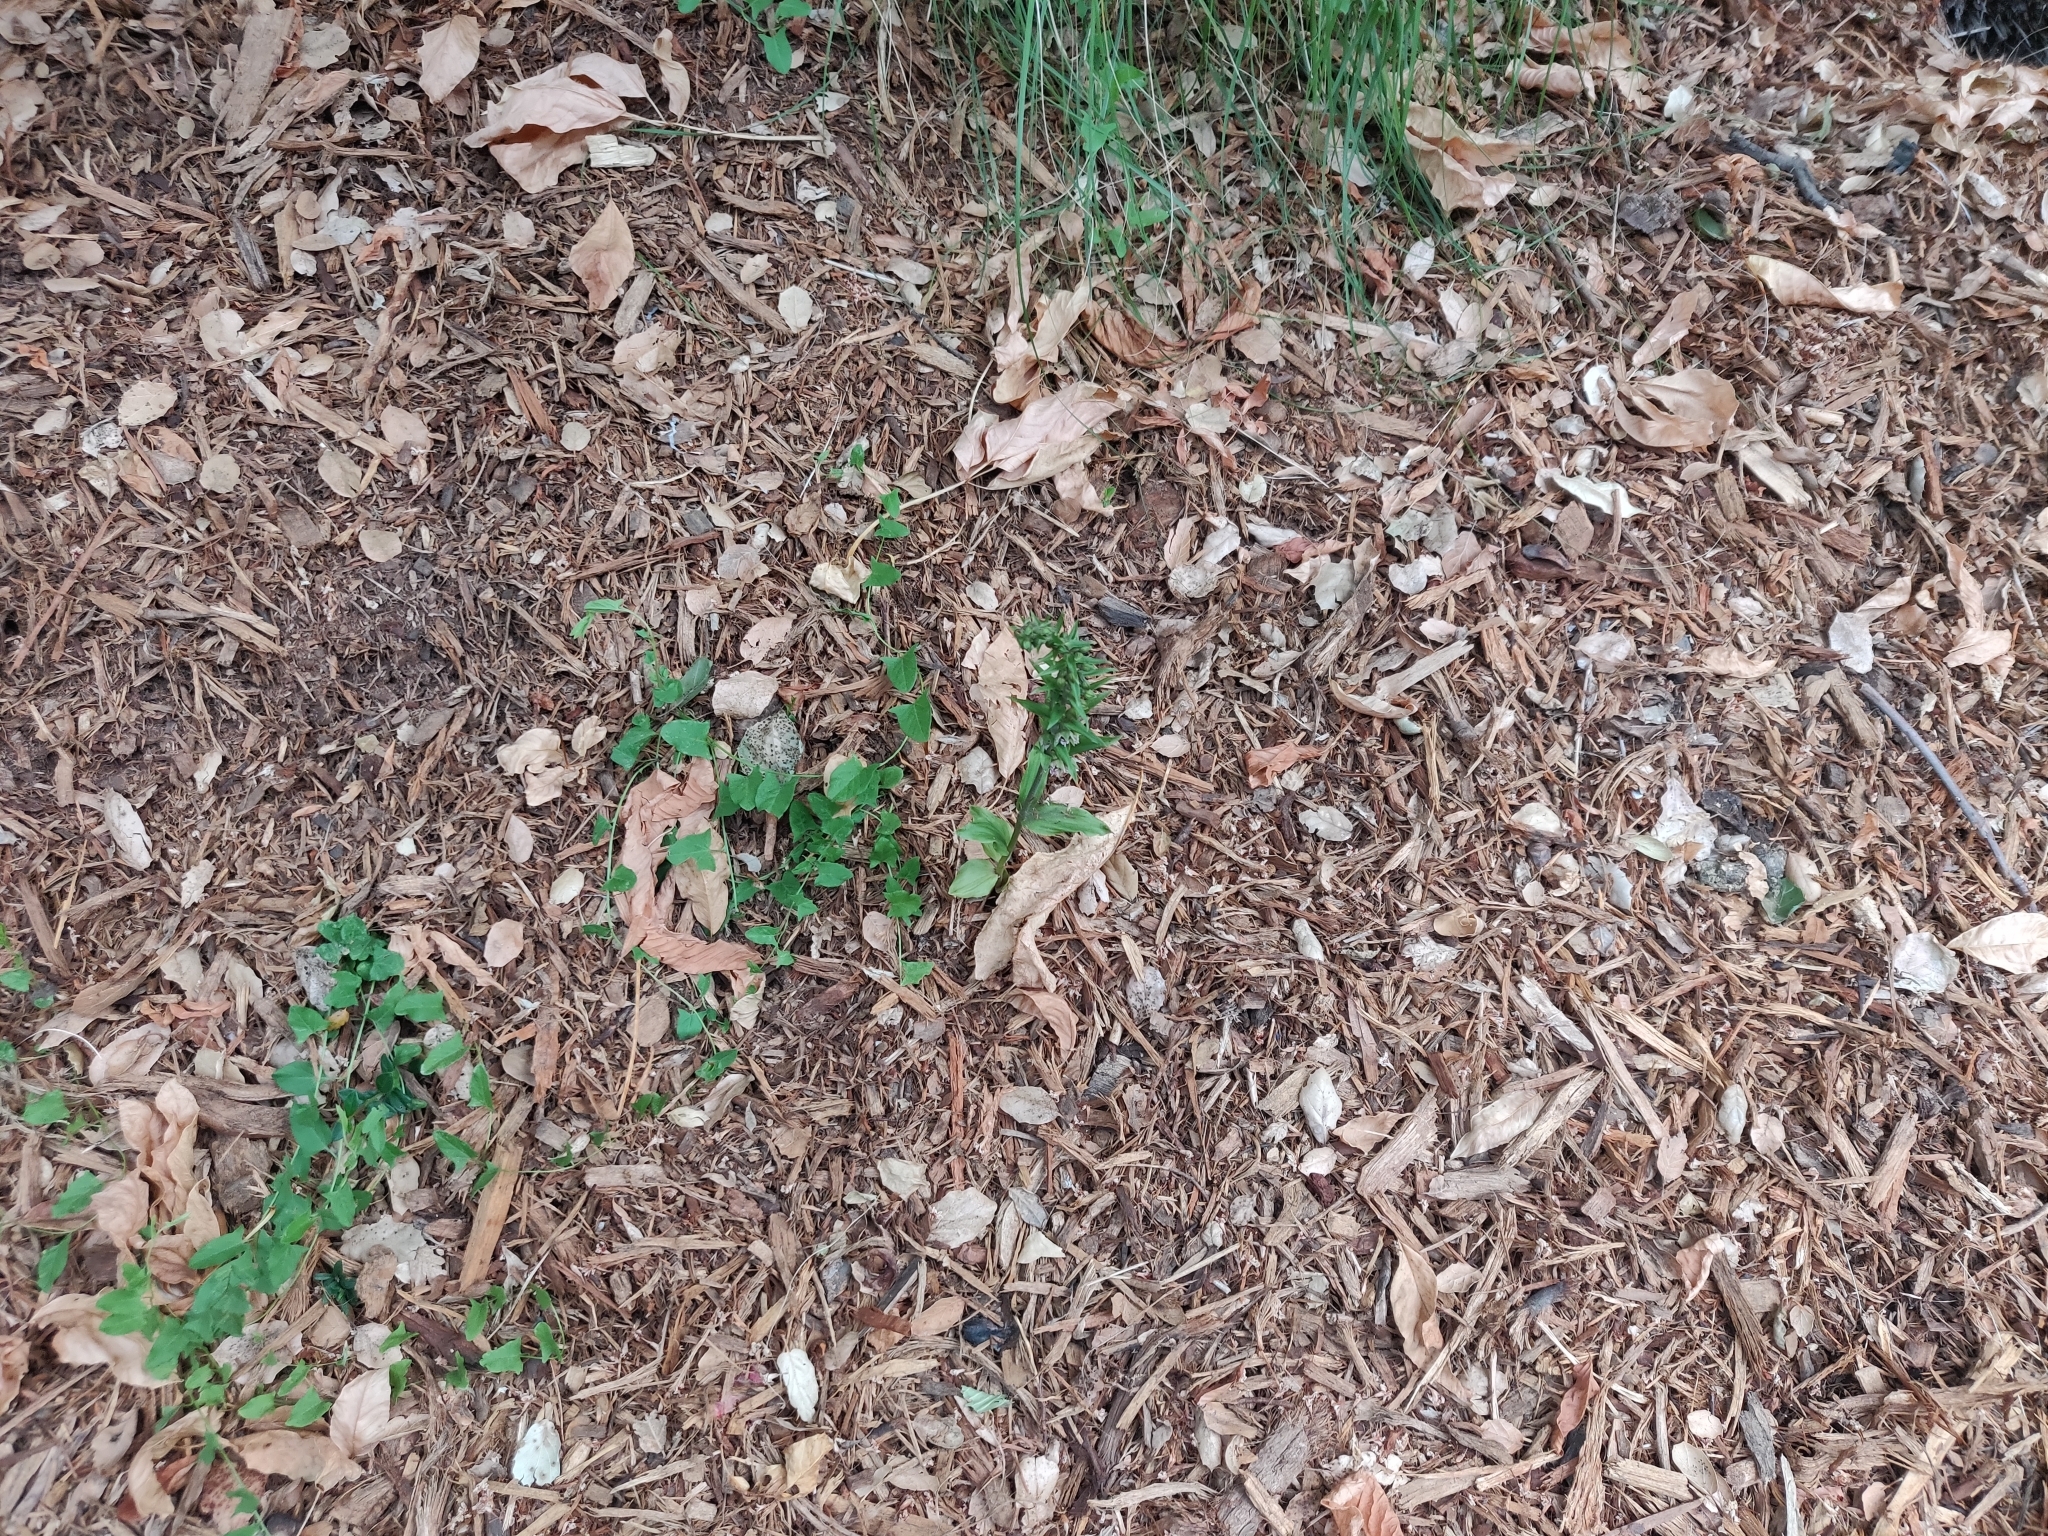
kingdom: Plantae
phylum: Tracheophyta
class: Liliopsida
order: Asparagales
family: Orchidaceae
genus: Epipactis
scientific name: Epipactis helleborine
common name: Broad-leaved helleborine
